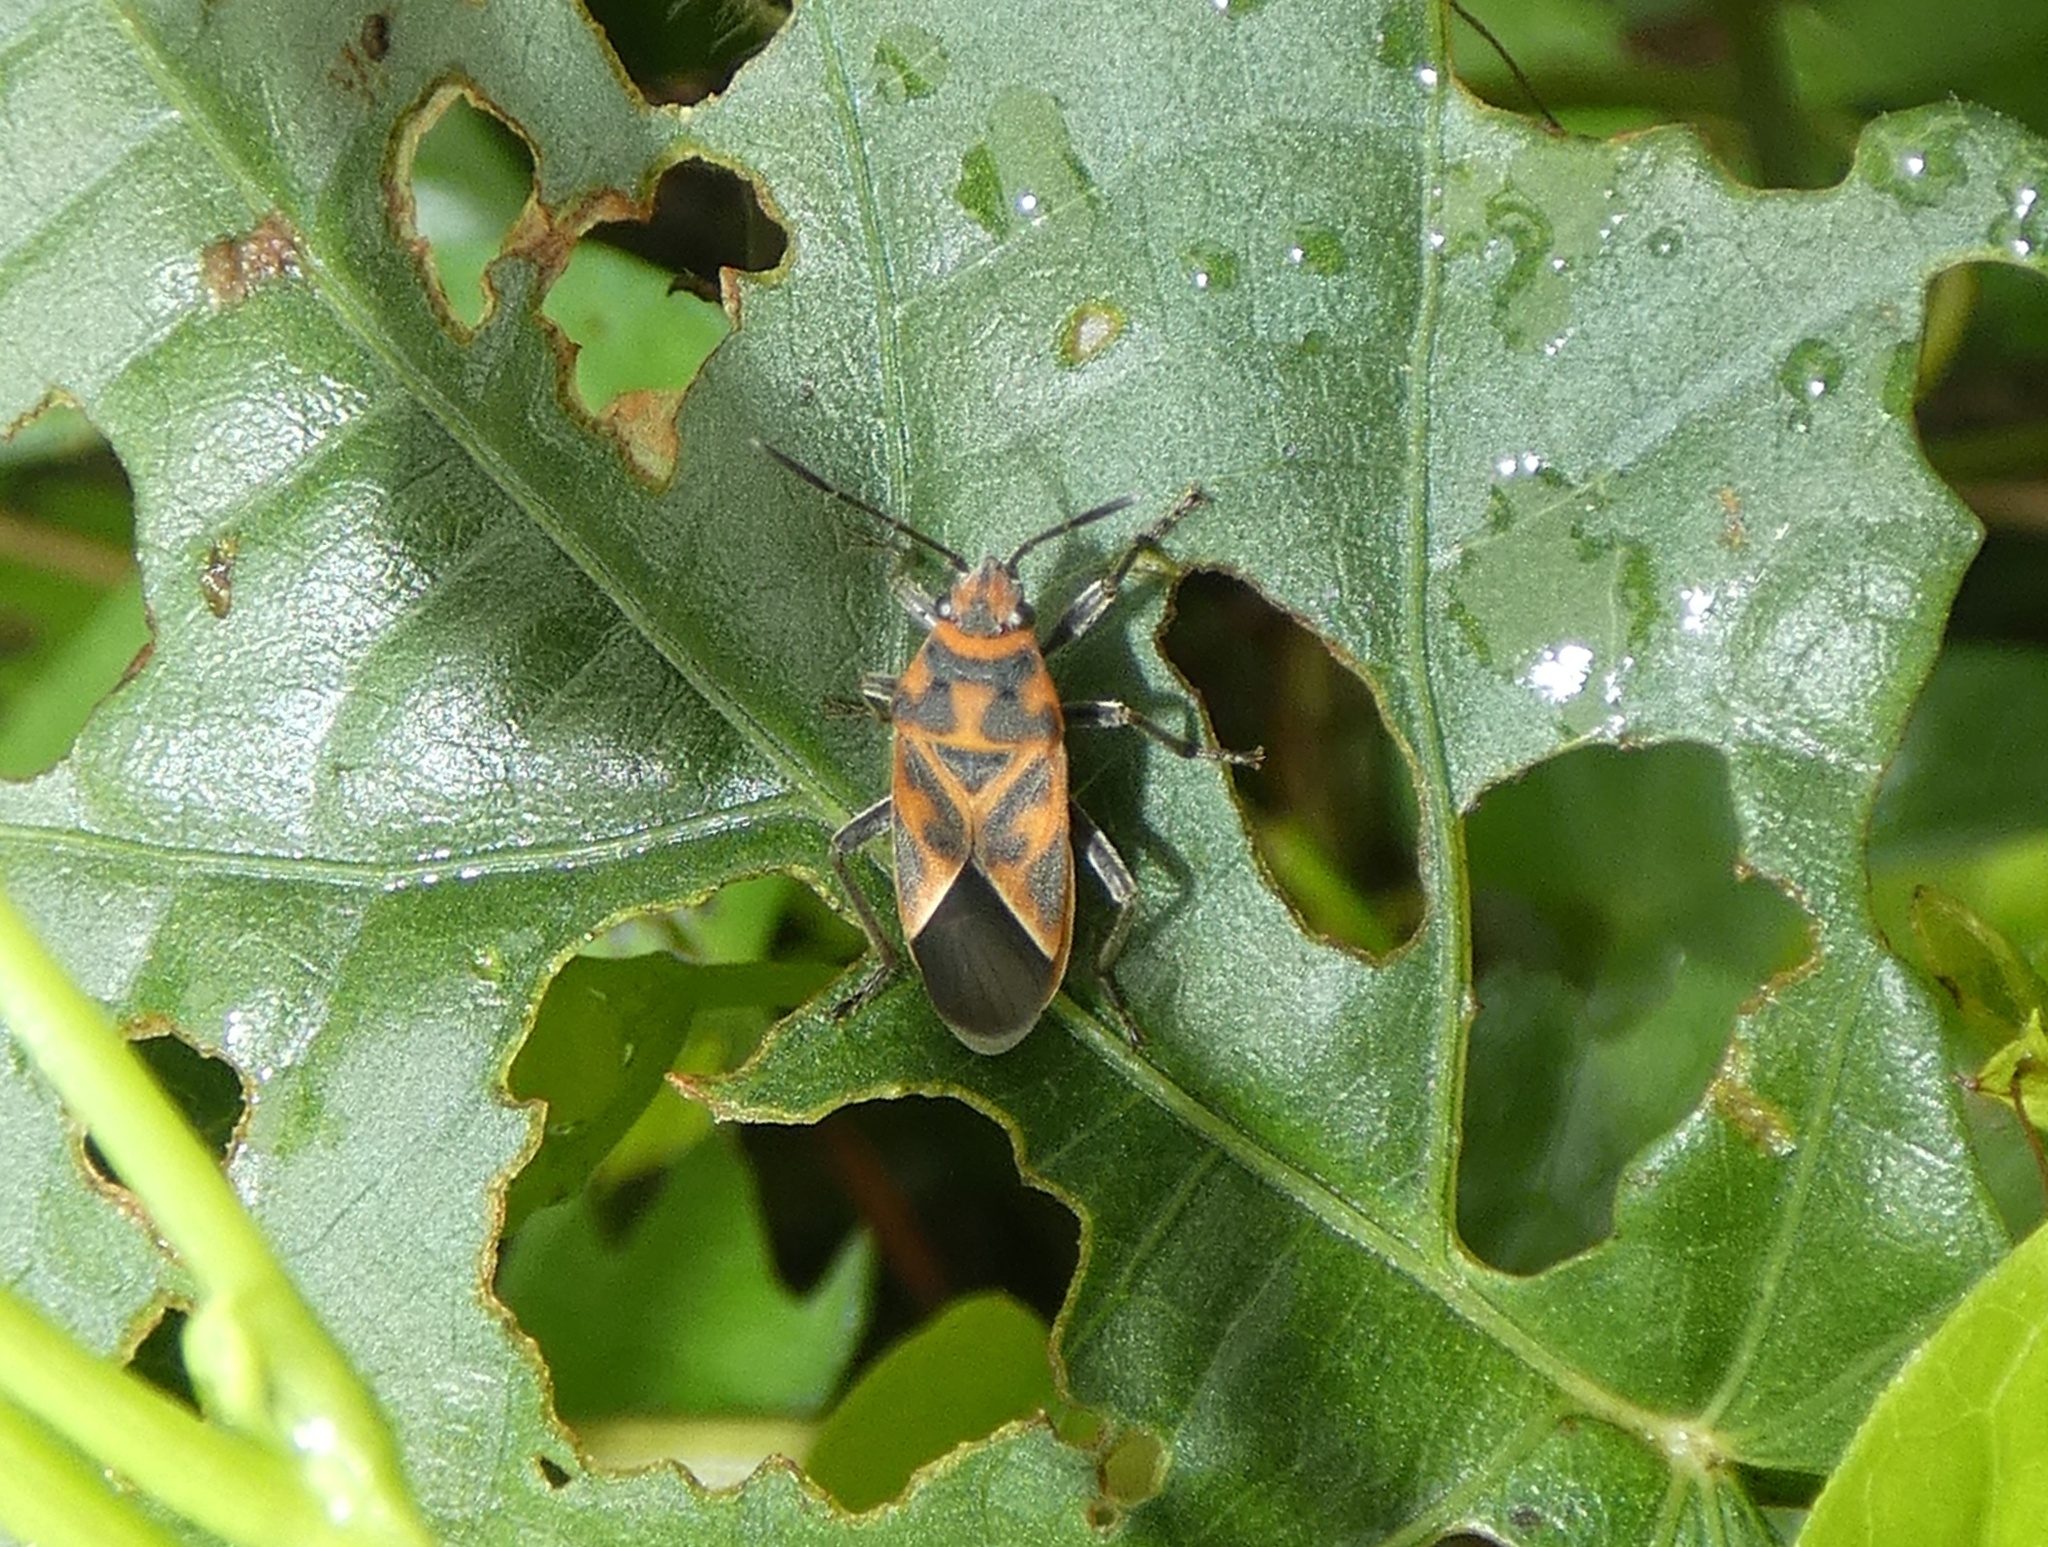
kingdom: Animalia
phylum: Arthropoda
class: Insecta
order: Hemiptera
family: Lygaeidae
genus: Graptostethus
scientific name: Graptostethus varipictus
